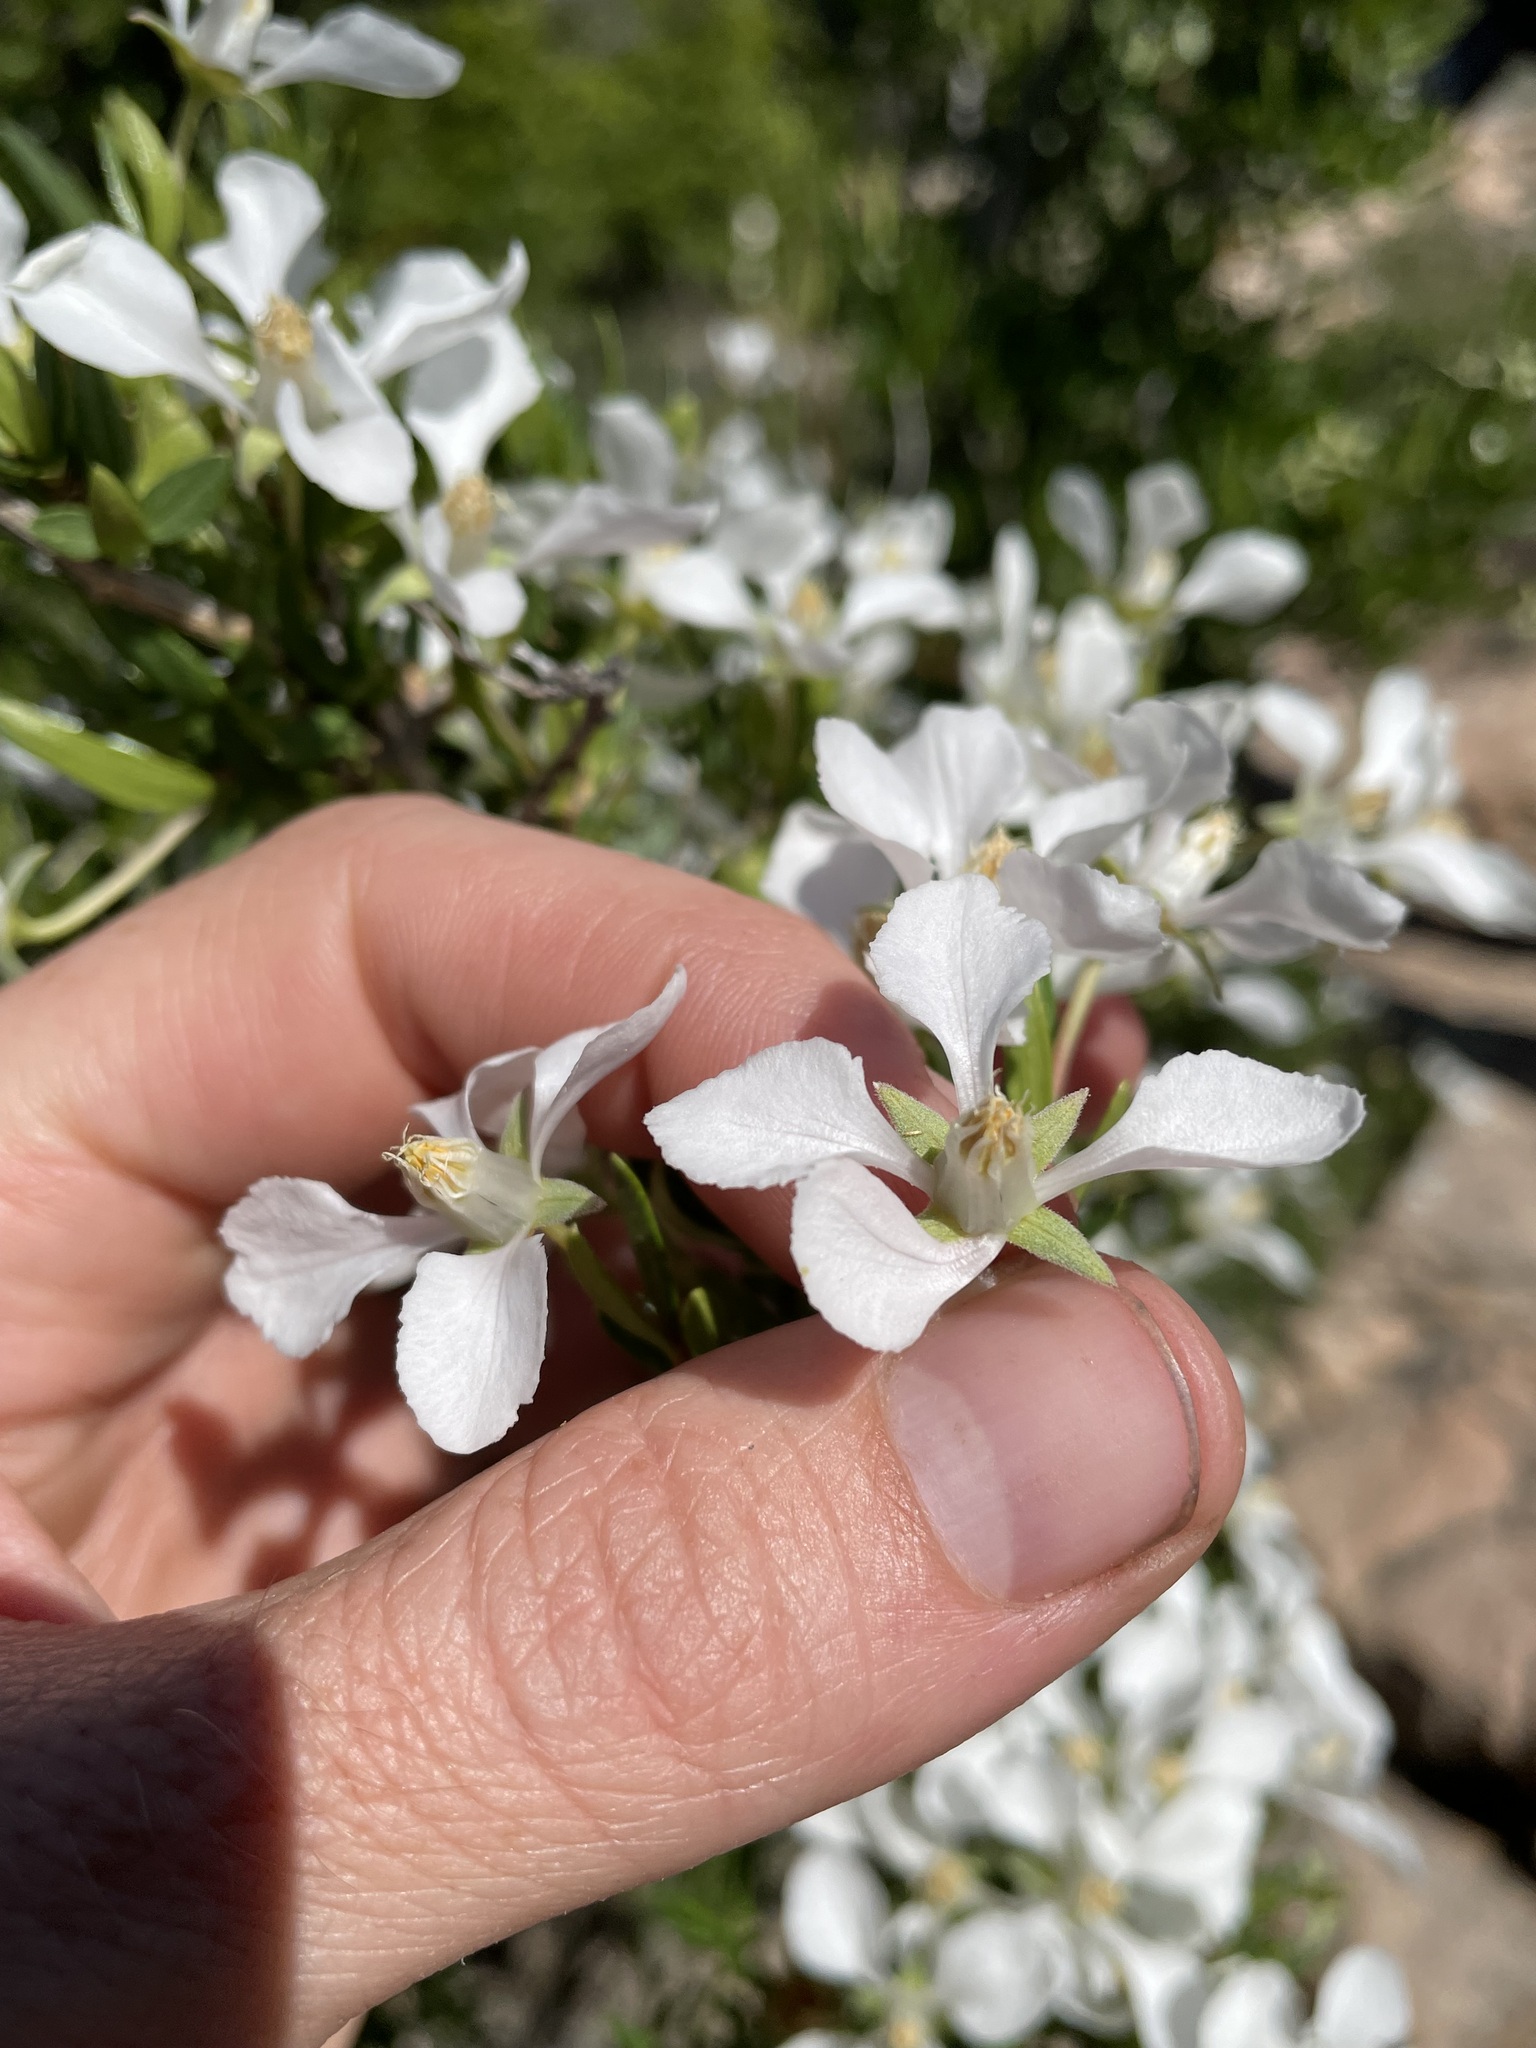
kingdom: Plantae
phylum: Tracheophyta
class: Magnoliopsida
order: Cornales
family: Hydrangeaceae
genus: Fendlera
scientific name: Fendlera rupicola
